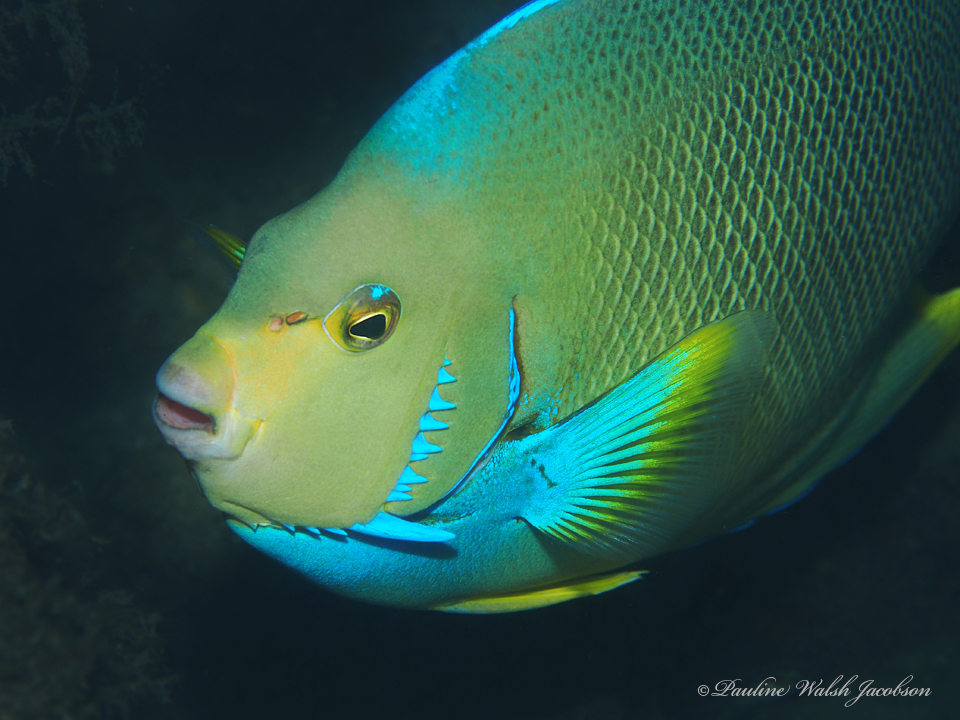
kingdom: Animalia
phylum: Chordata
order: Perciformes
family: Pomacanthidae
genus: Holacanthus
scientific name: Holacanthus bermudensis
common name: Blue angelfish
